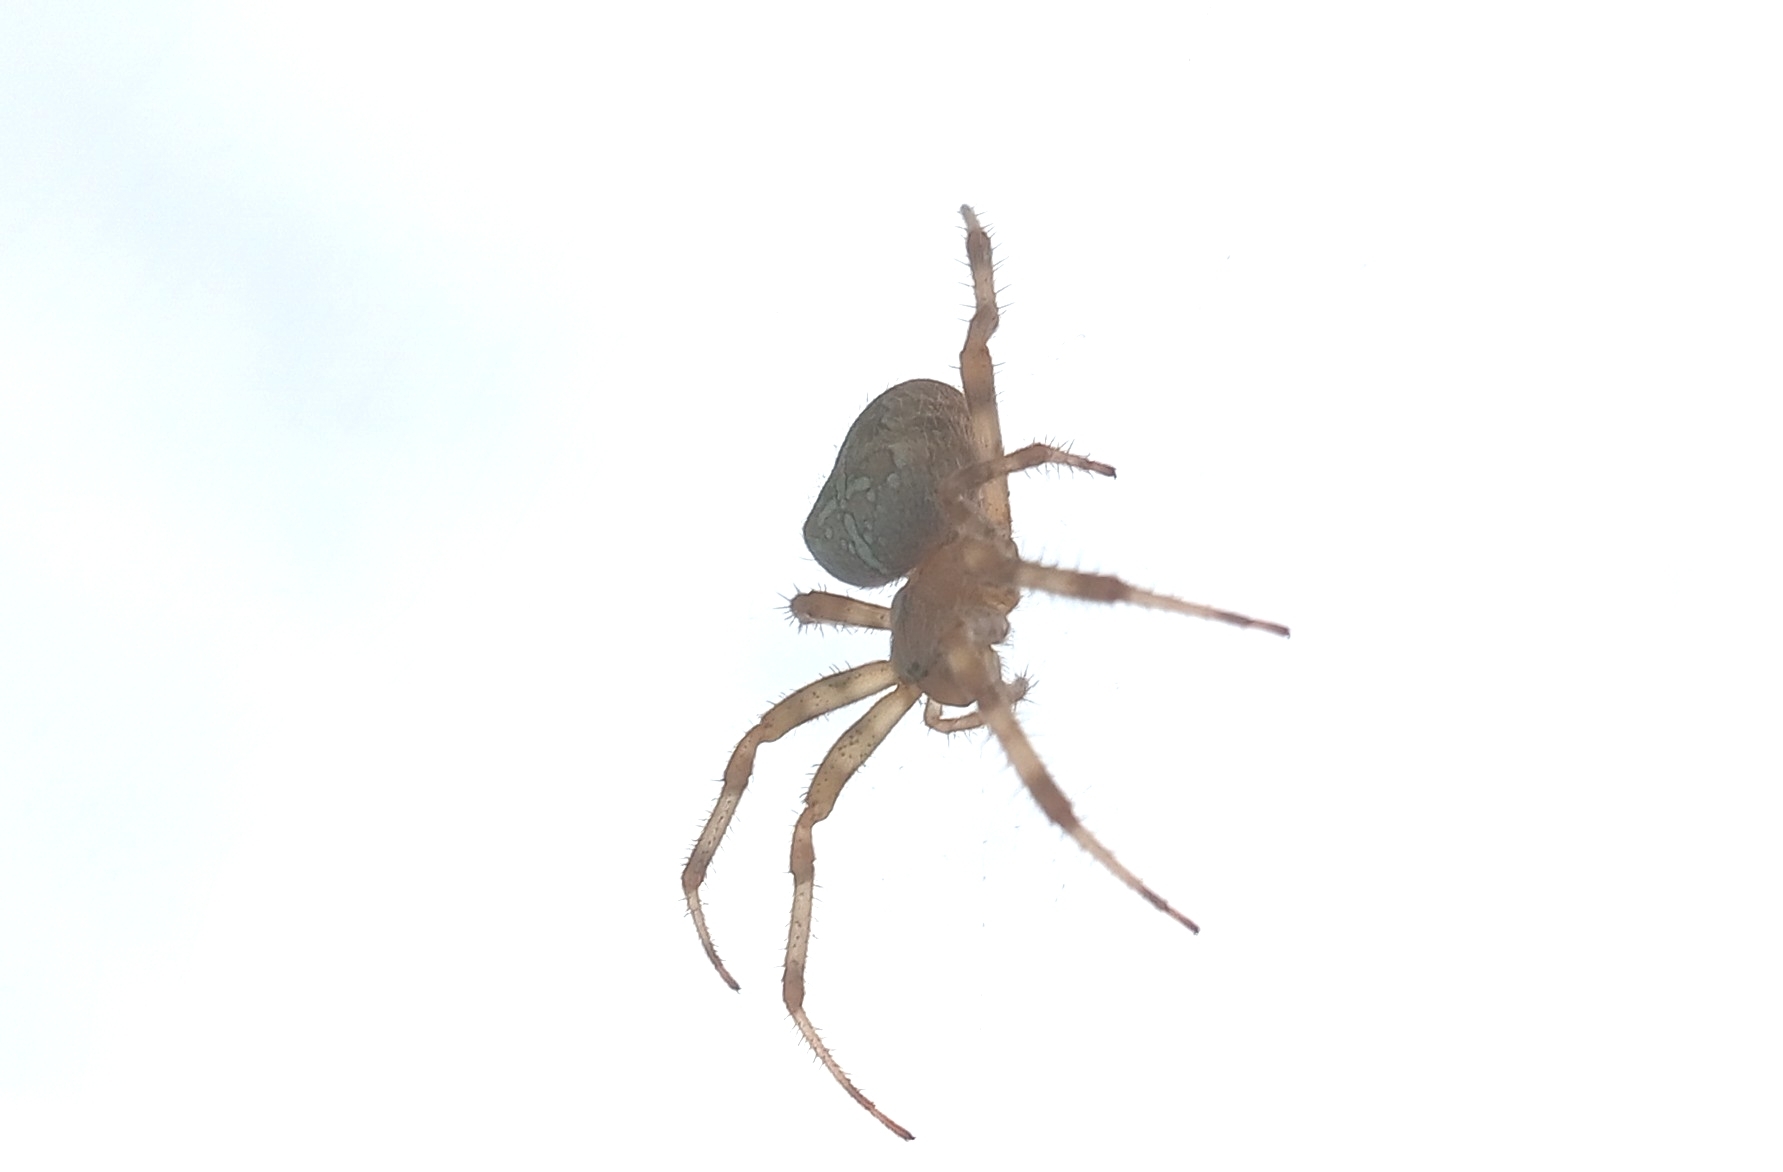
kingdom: Animalia
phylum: Arthropoda
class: Arachnida
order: Araneae
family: Araneidae
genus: Araneus
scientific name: Araneus diadematus
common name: Cross orbweaver
